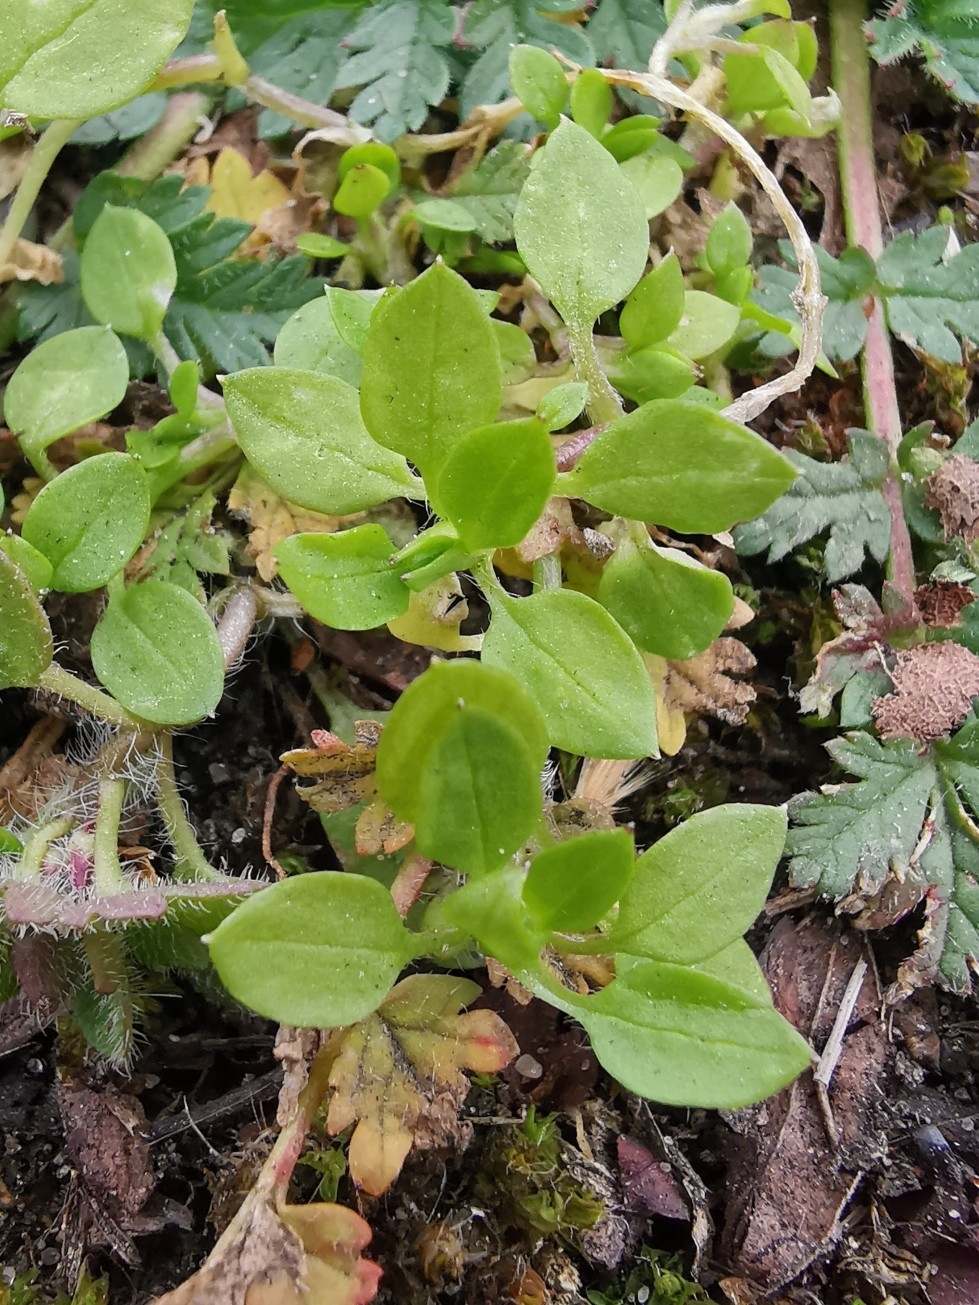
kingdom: Plantae
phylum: Tracheophyta
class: Magnoliopsida
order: Caryophyllales
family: Caryophyllaceae
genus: Stellaria
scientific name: Stellaria media
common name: Common chickweed
